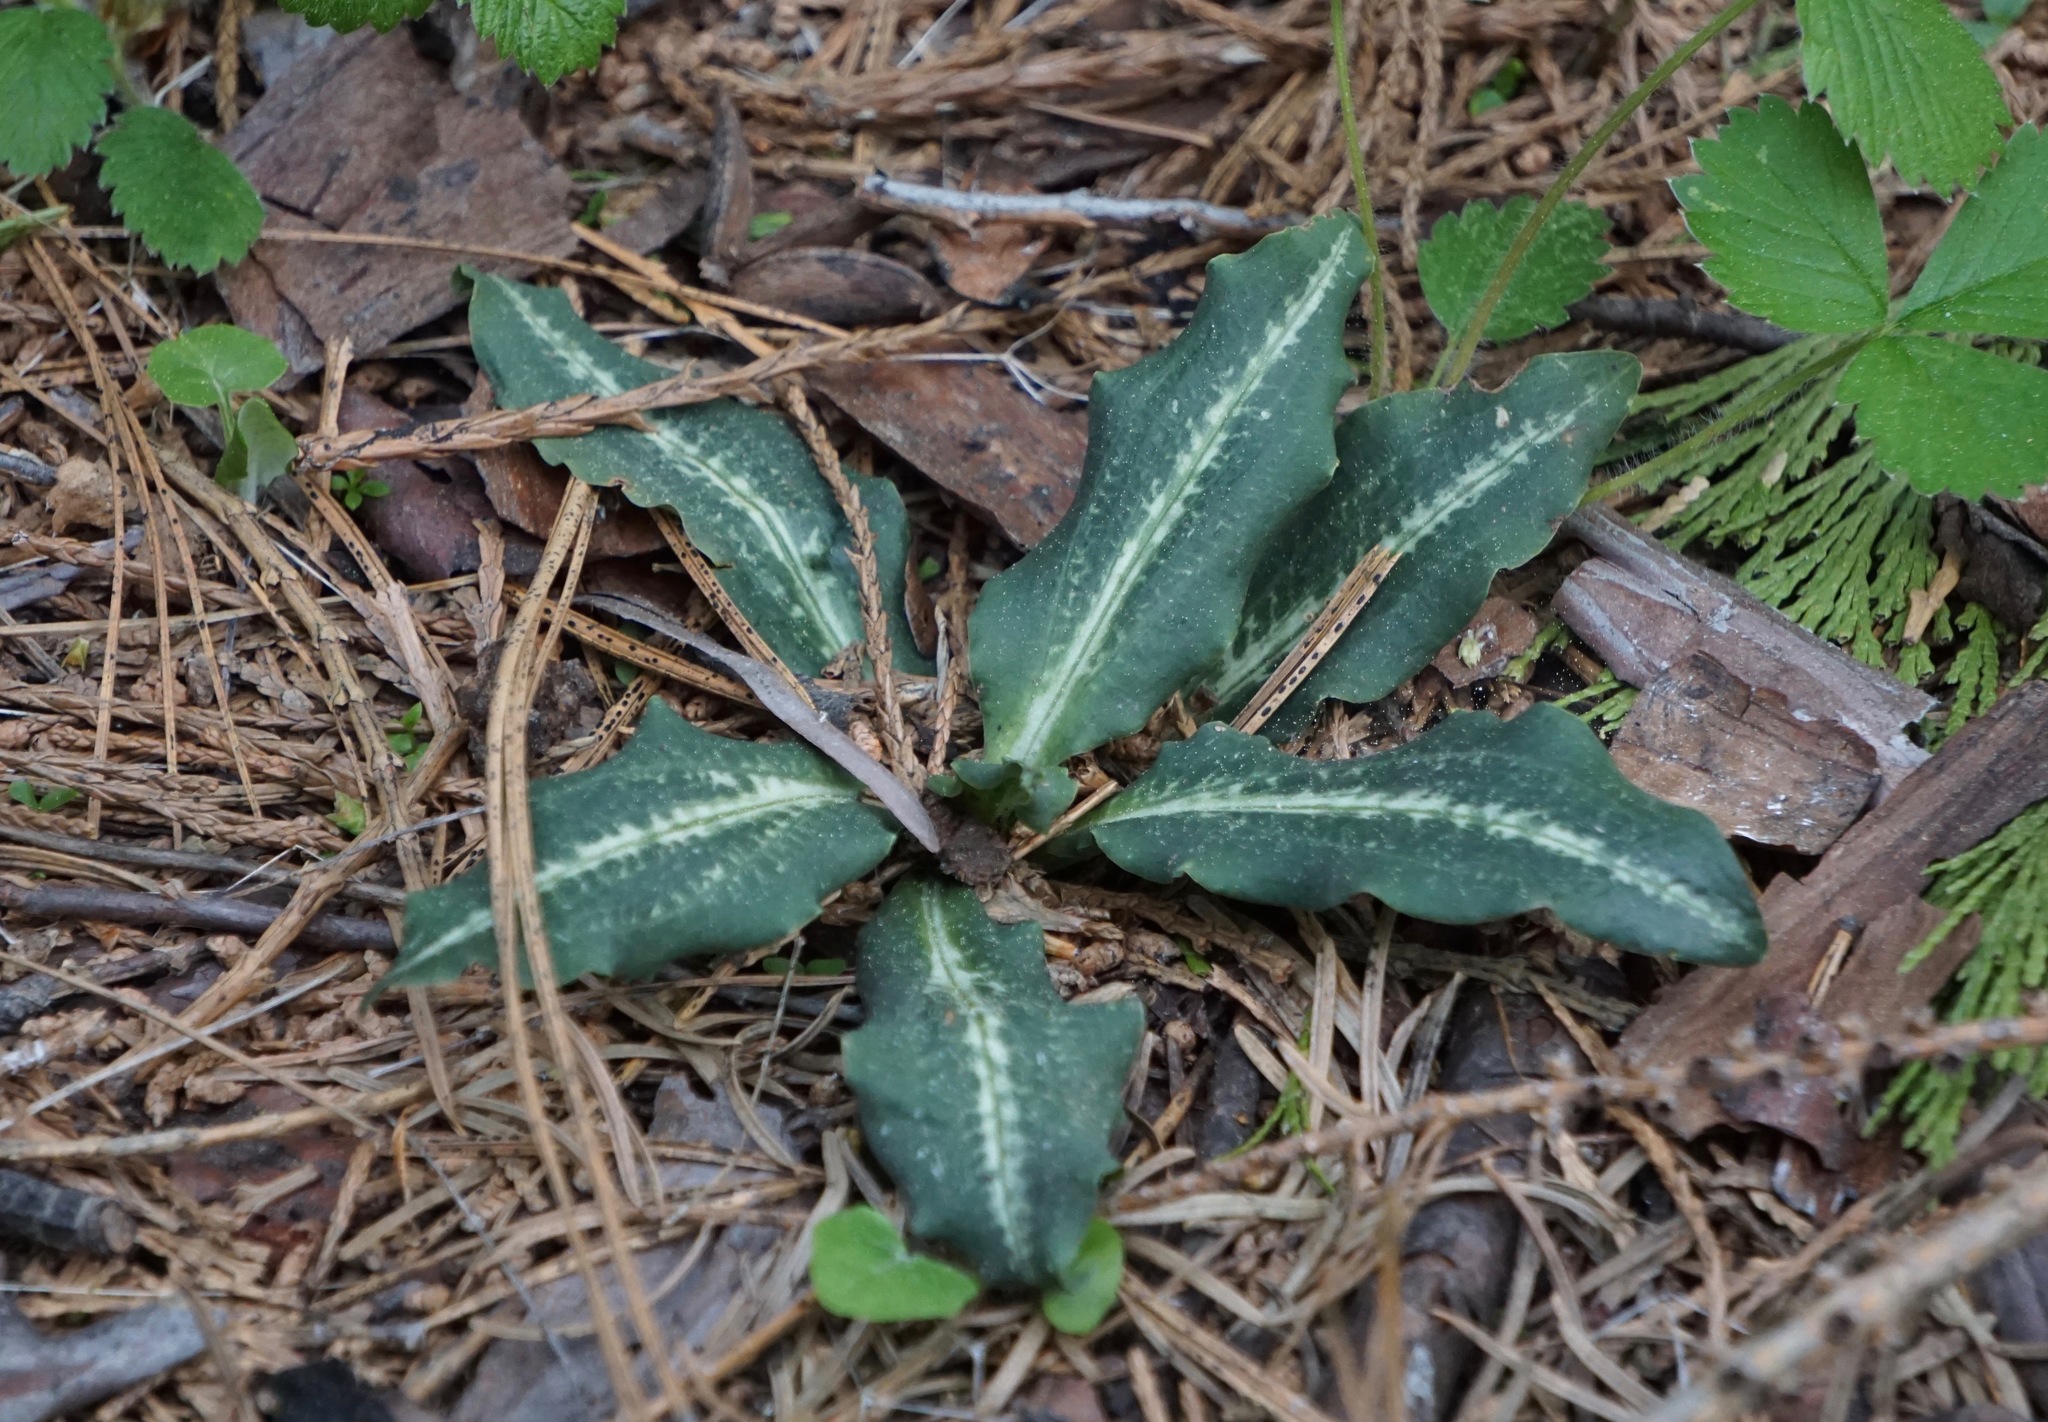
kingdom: Plantae
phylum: Tracheophyta
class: Liliopsida
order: Asparagales
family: Orchidaceae
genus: Goodyera
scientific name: Goodyera oblongifolia
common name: Giant rattlesnake-plantain
